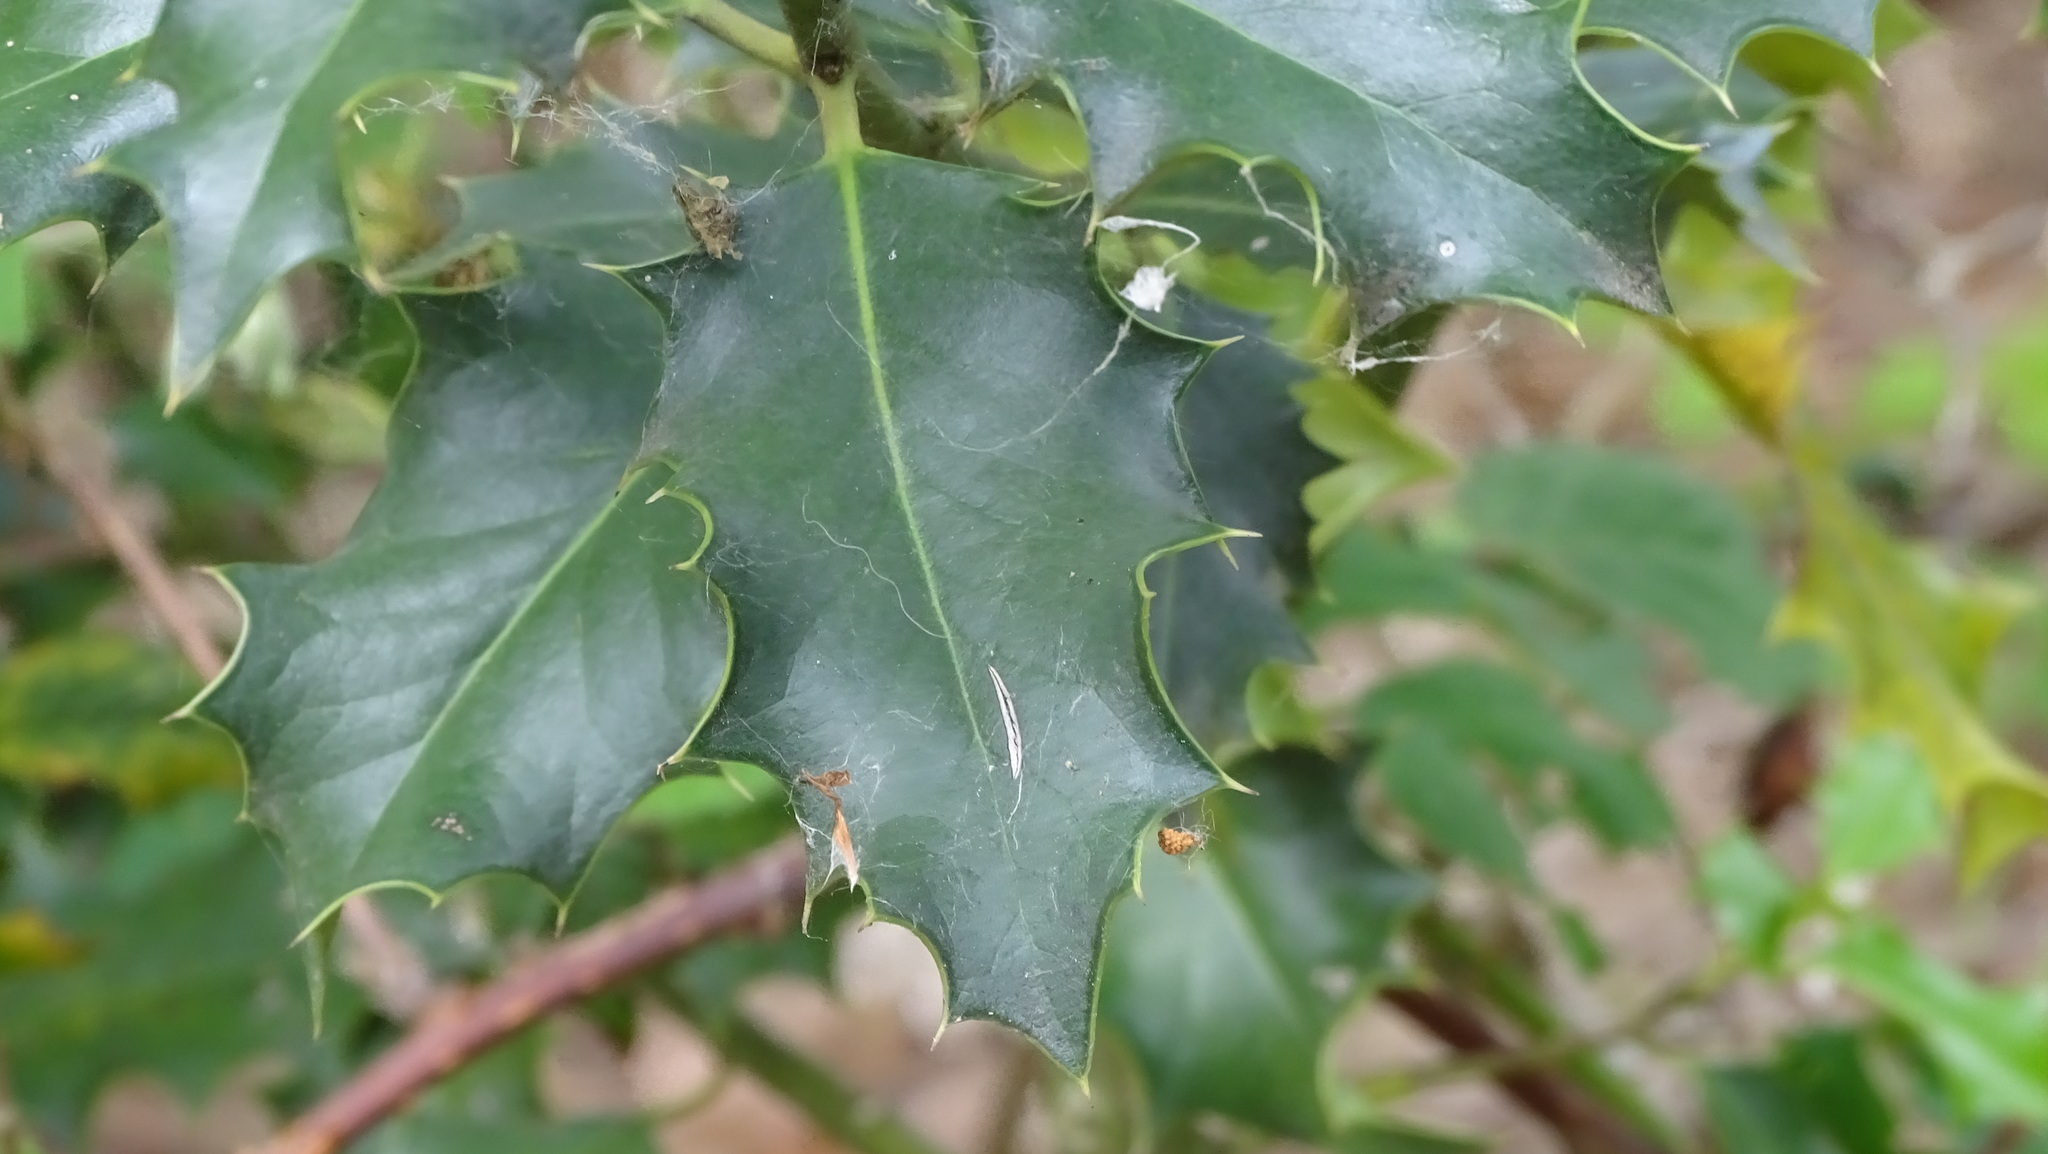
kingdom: Plantae
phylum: Tracheophyta
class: Magnoliopsida
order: Aquifoliales
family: Aquifoliaceae
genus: Ilex
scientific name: Ilex aquifolium
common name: English holly
